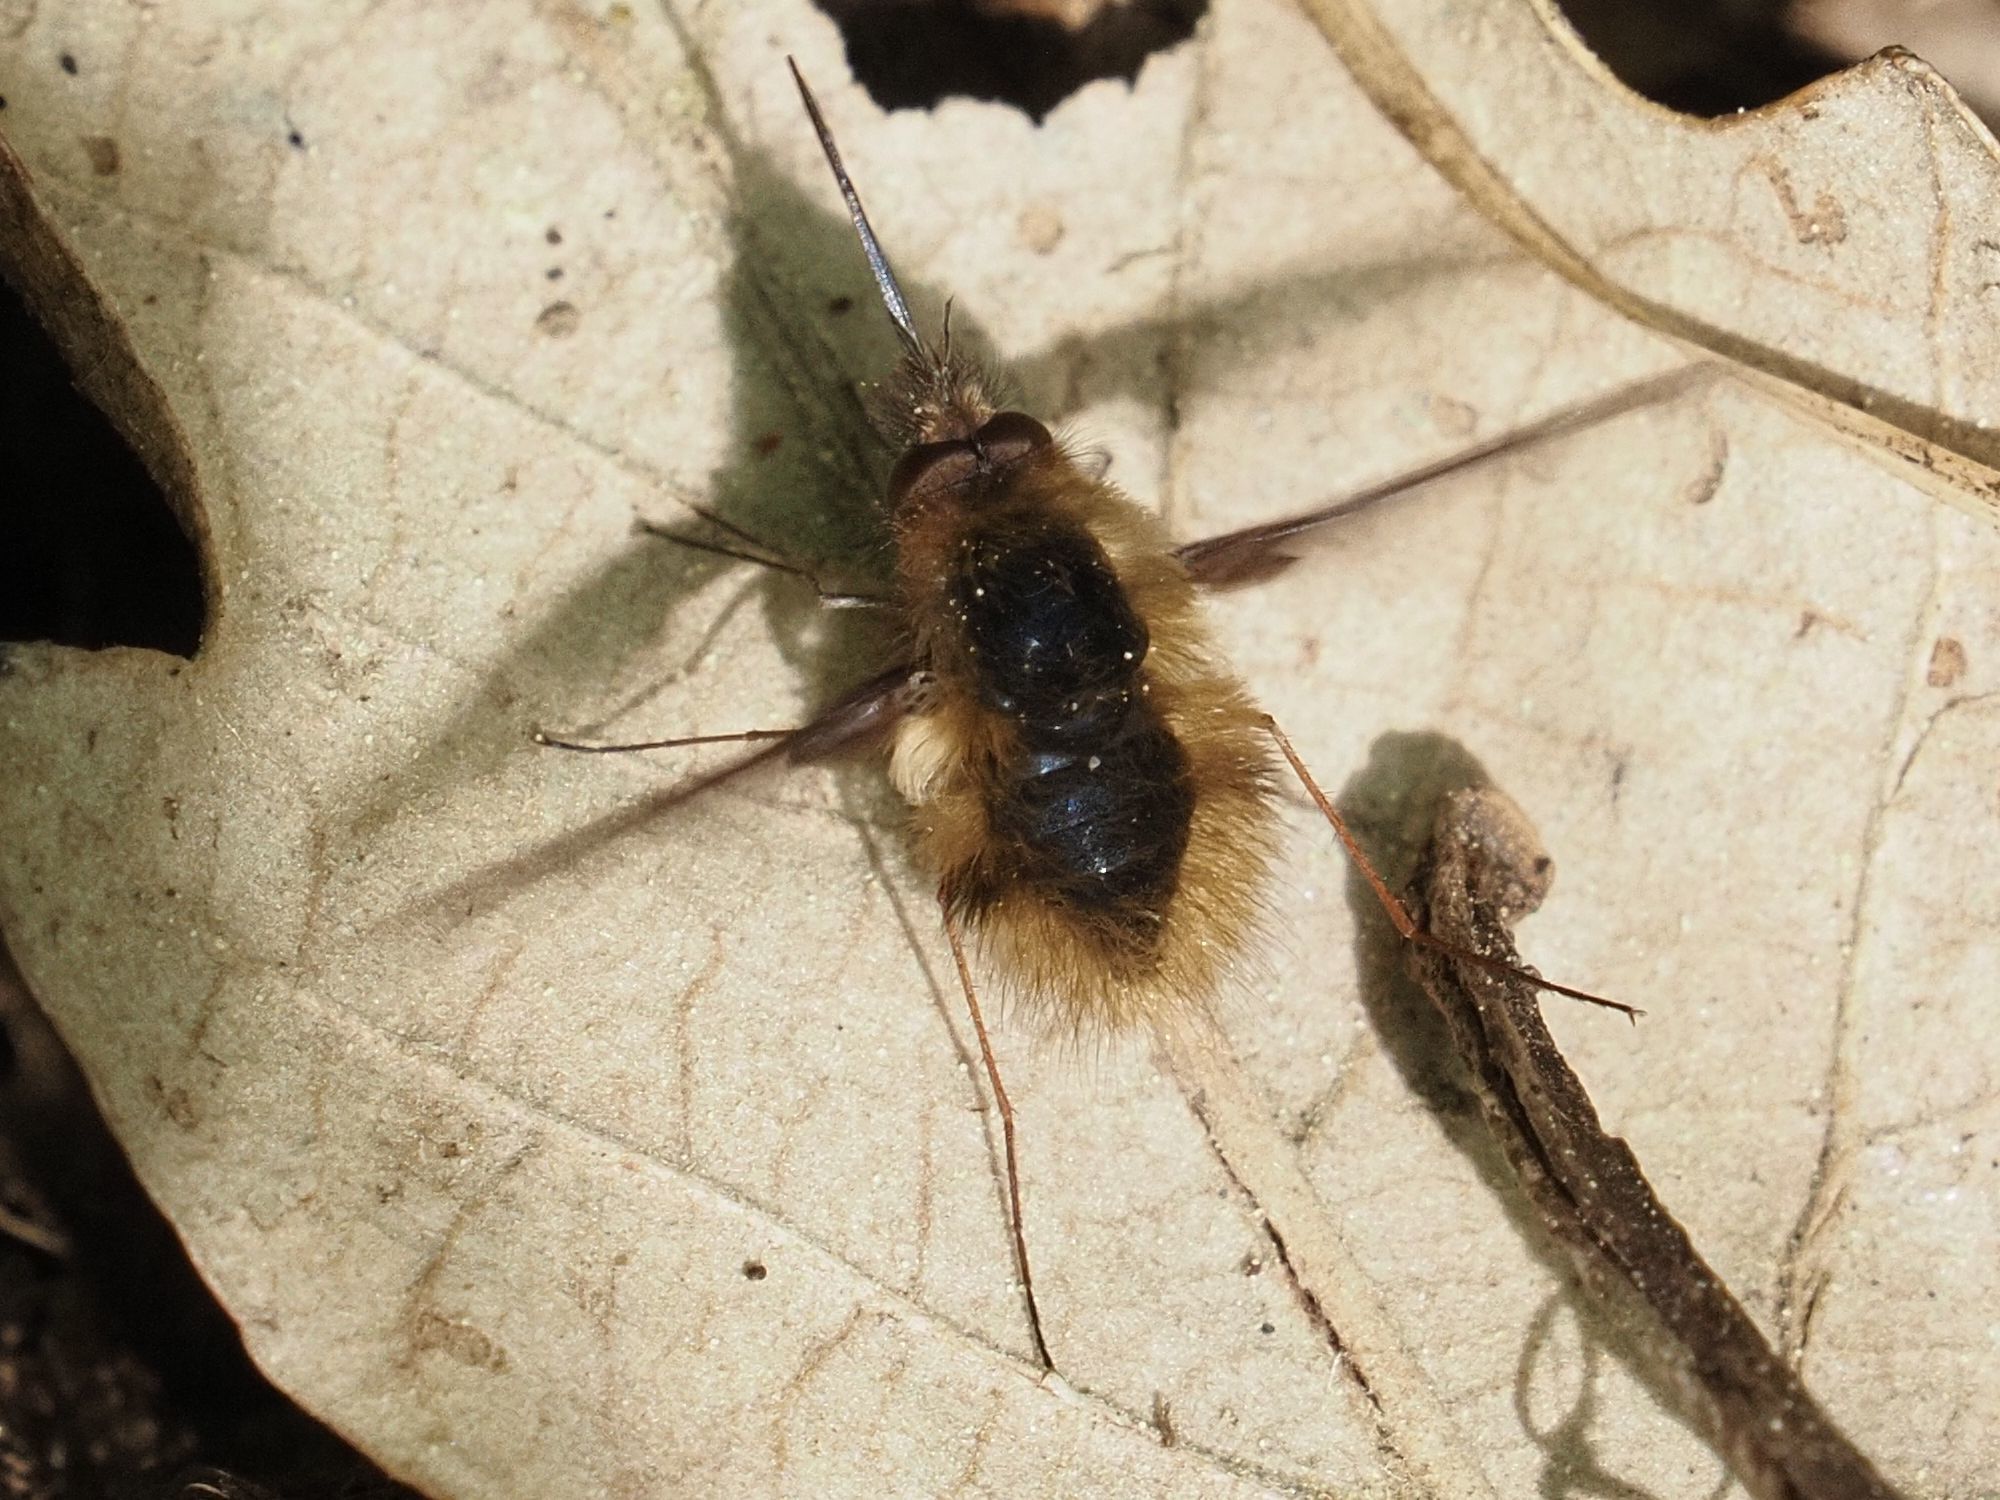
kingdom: Animalia
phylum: Arthropoda
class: Insecta
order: Diptera
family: Bombyliidae
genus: Bombylius
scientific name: Bombylius major
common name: Bee fly
